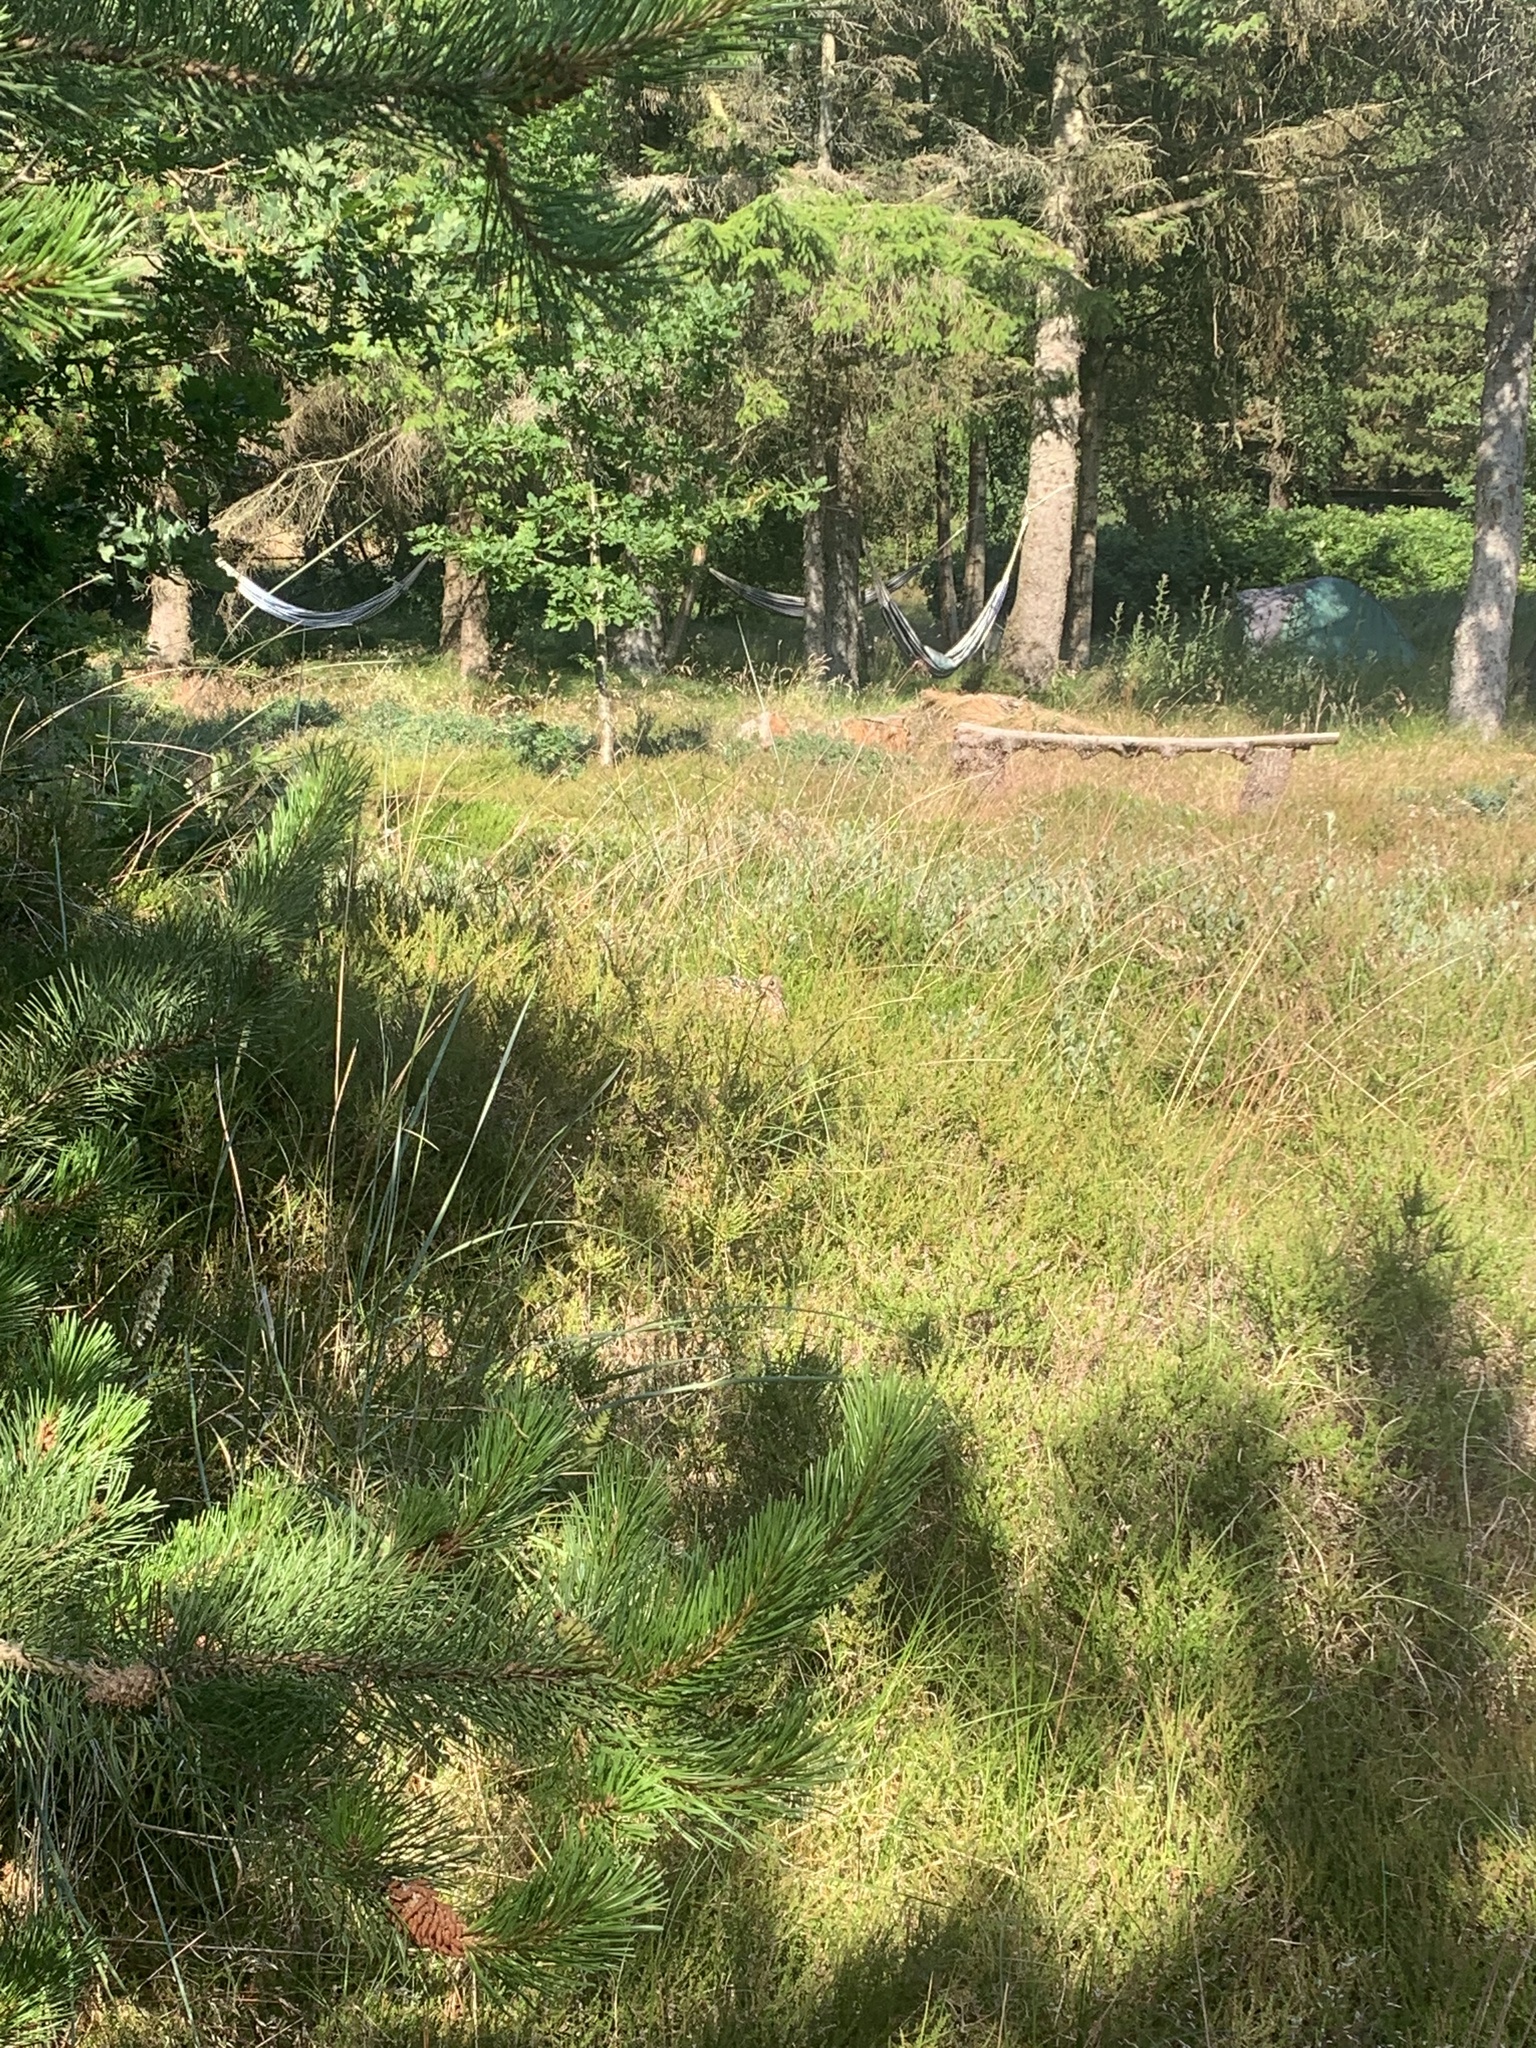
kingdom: Animalia
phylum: Chordata
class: Aves
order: Galliformes
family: Phasianidae
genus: Phasianus
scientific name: Phasianus colchicus
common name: Common pheasant
